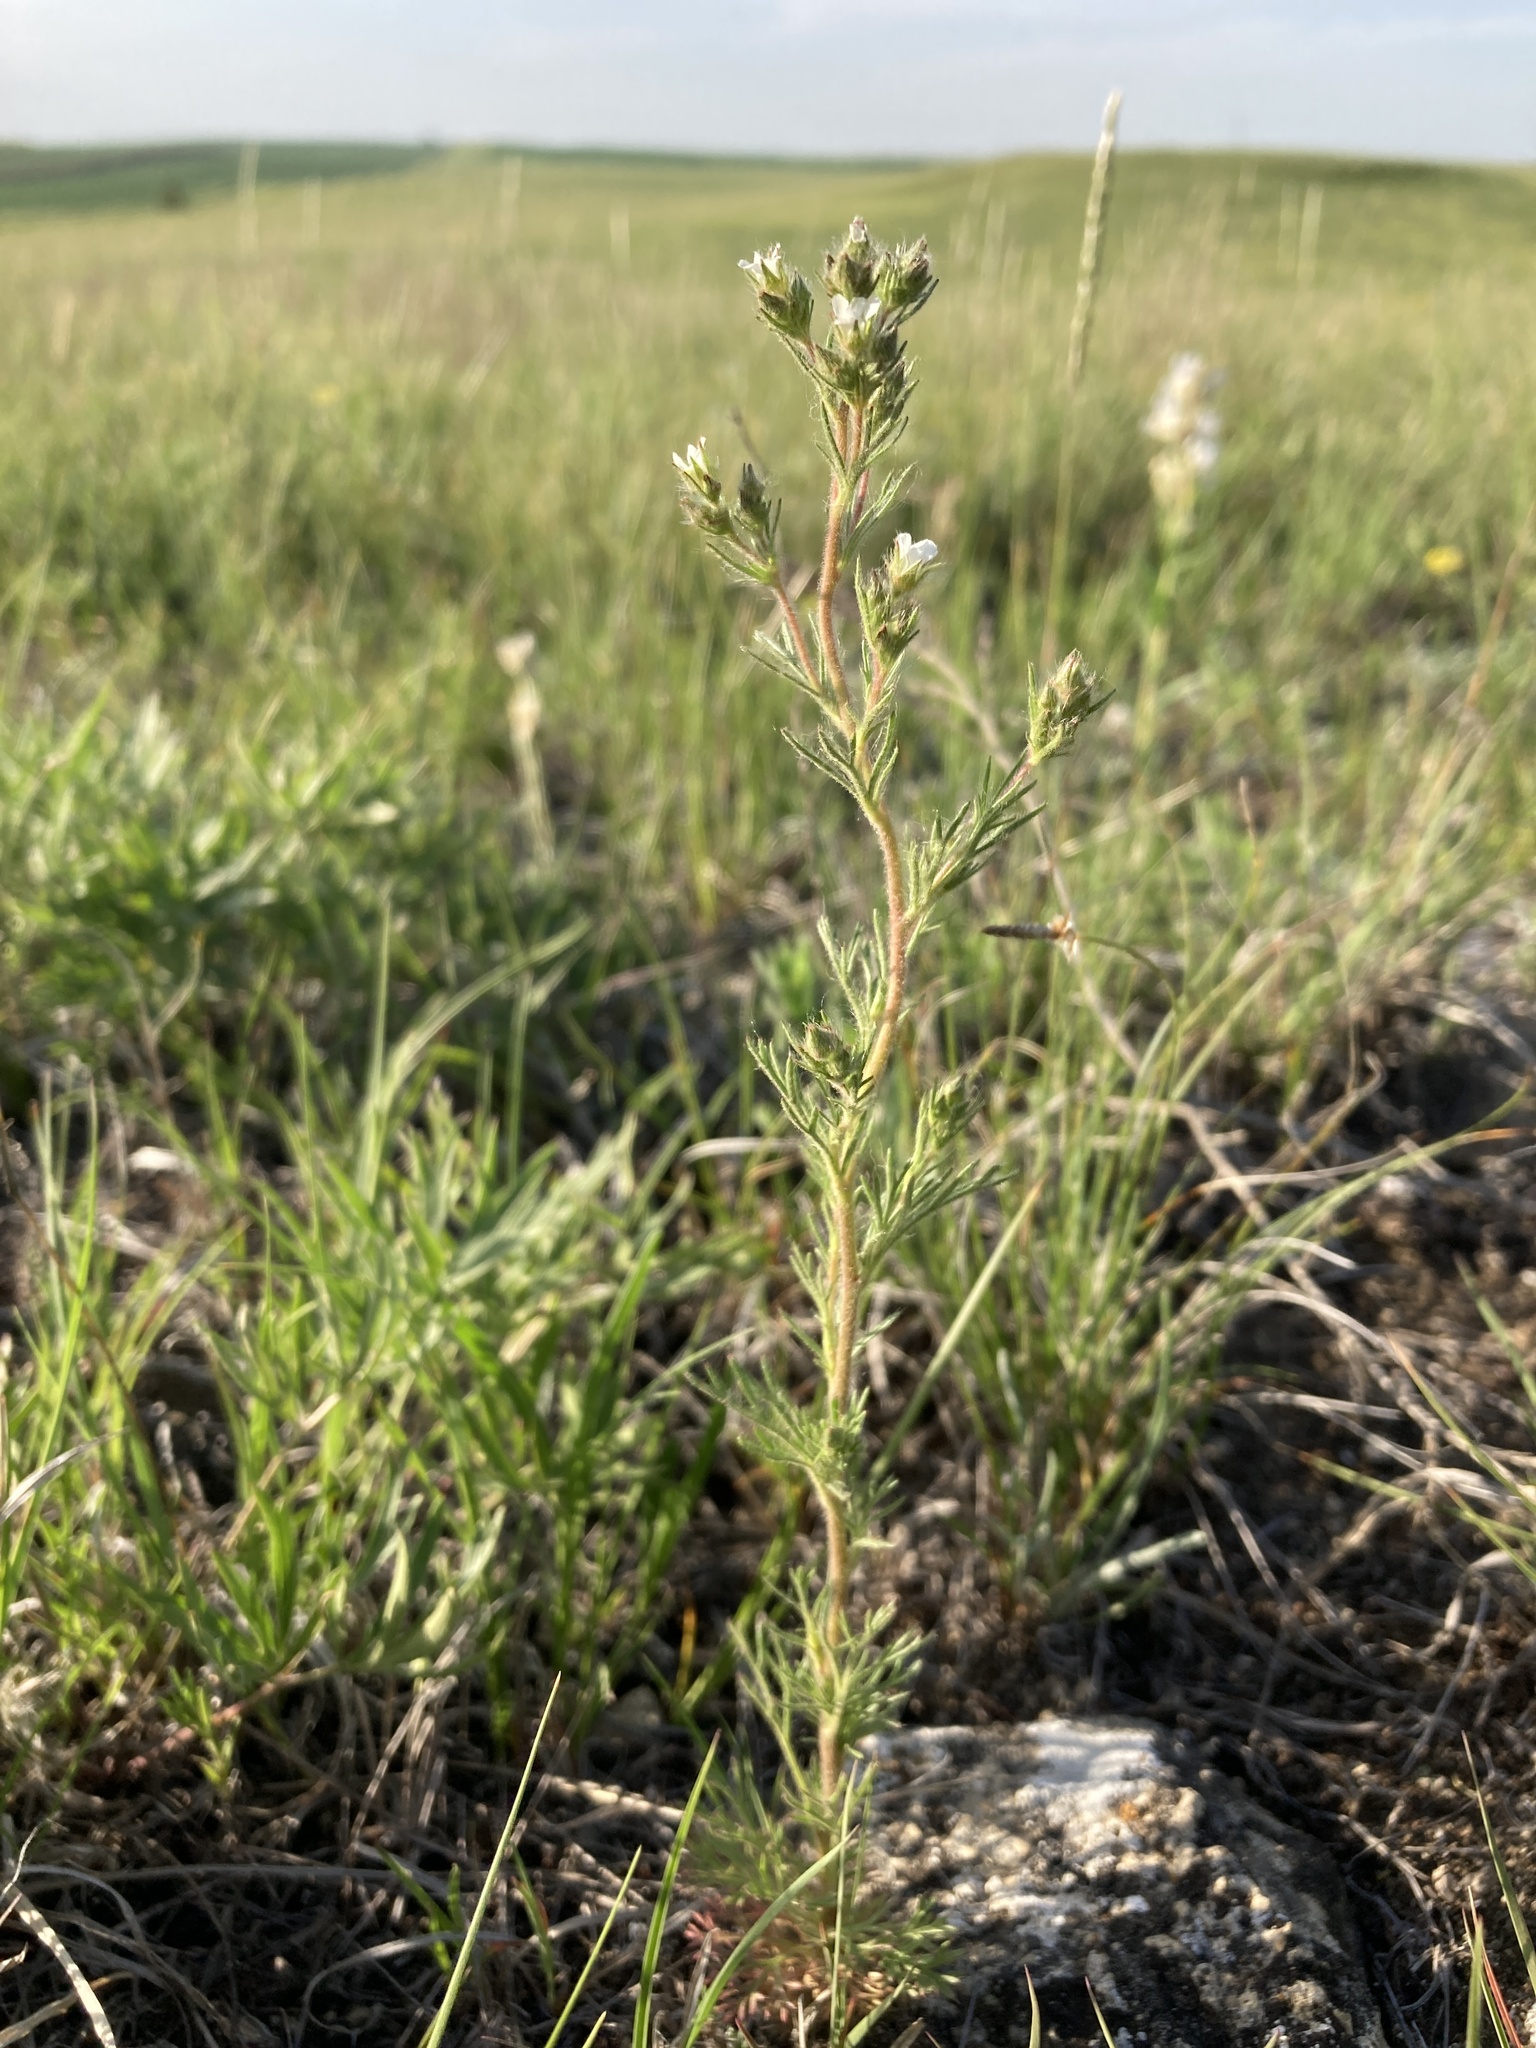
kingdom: Plantae
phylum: Tracheophyta
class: Magnoliopsida
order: Rosales
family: Rosaceae
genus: Chamaerhodos
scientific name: Chamaerhodos erecta
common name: American chamaerhodos
